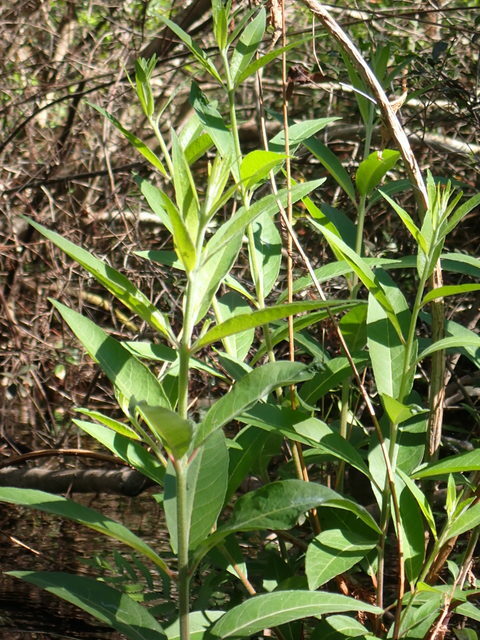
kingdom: Plantae
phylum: Tracheophyta
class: Magnoliopsida
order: Myrtales
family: Lythraceae
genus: Decodon
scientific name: Decodon verticillatus
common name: Hairy swamp loosestrife
